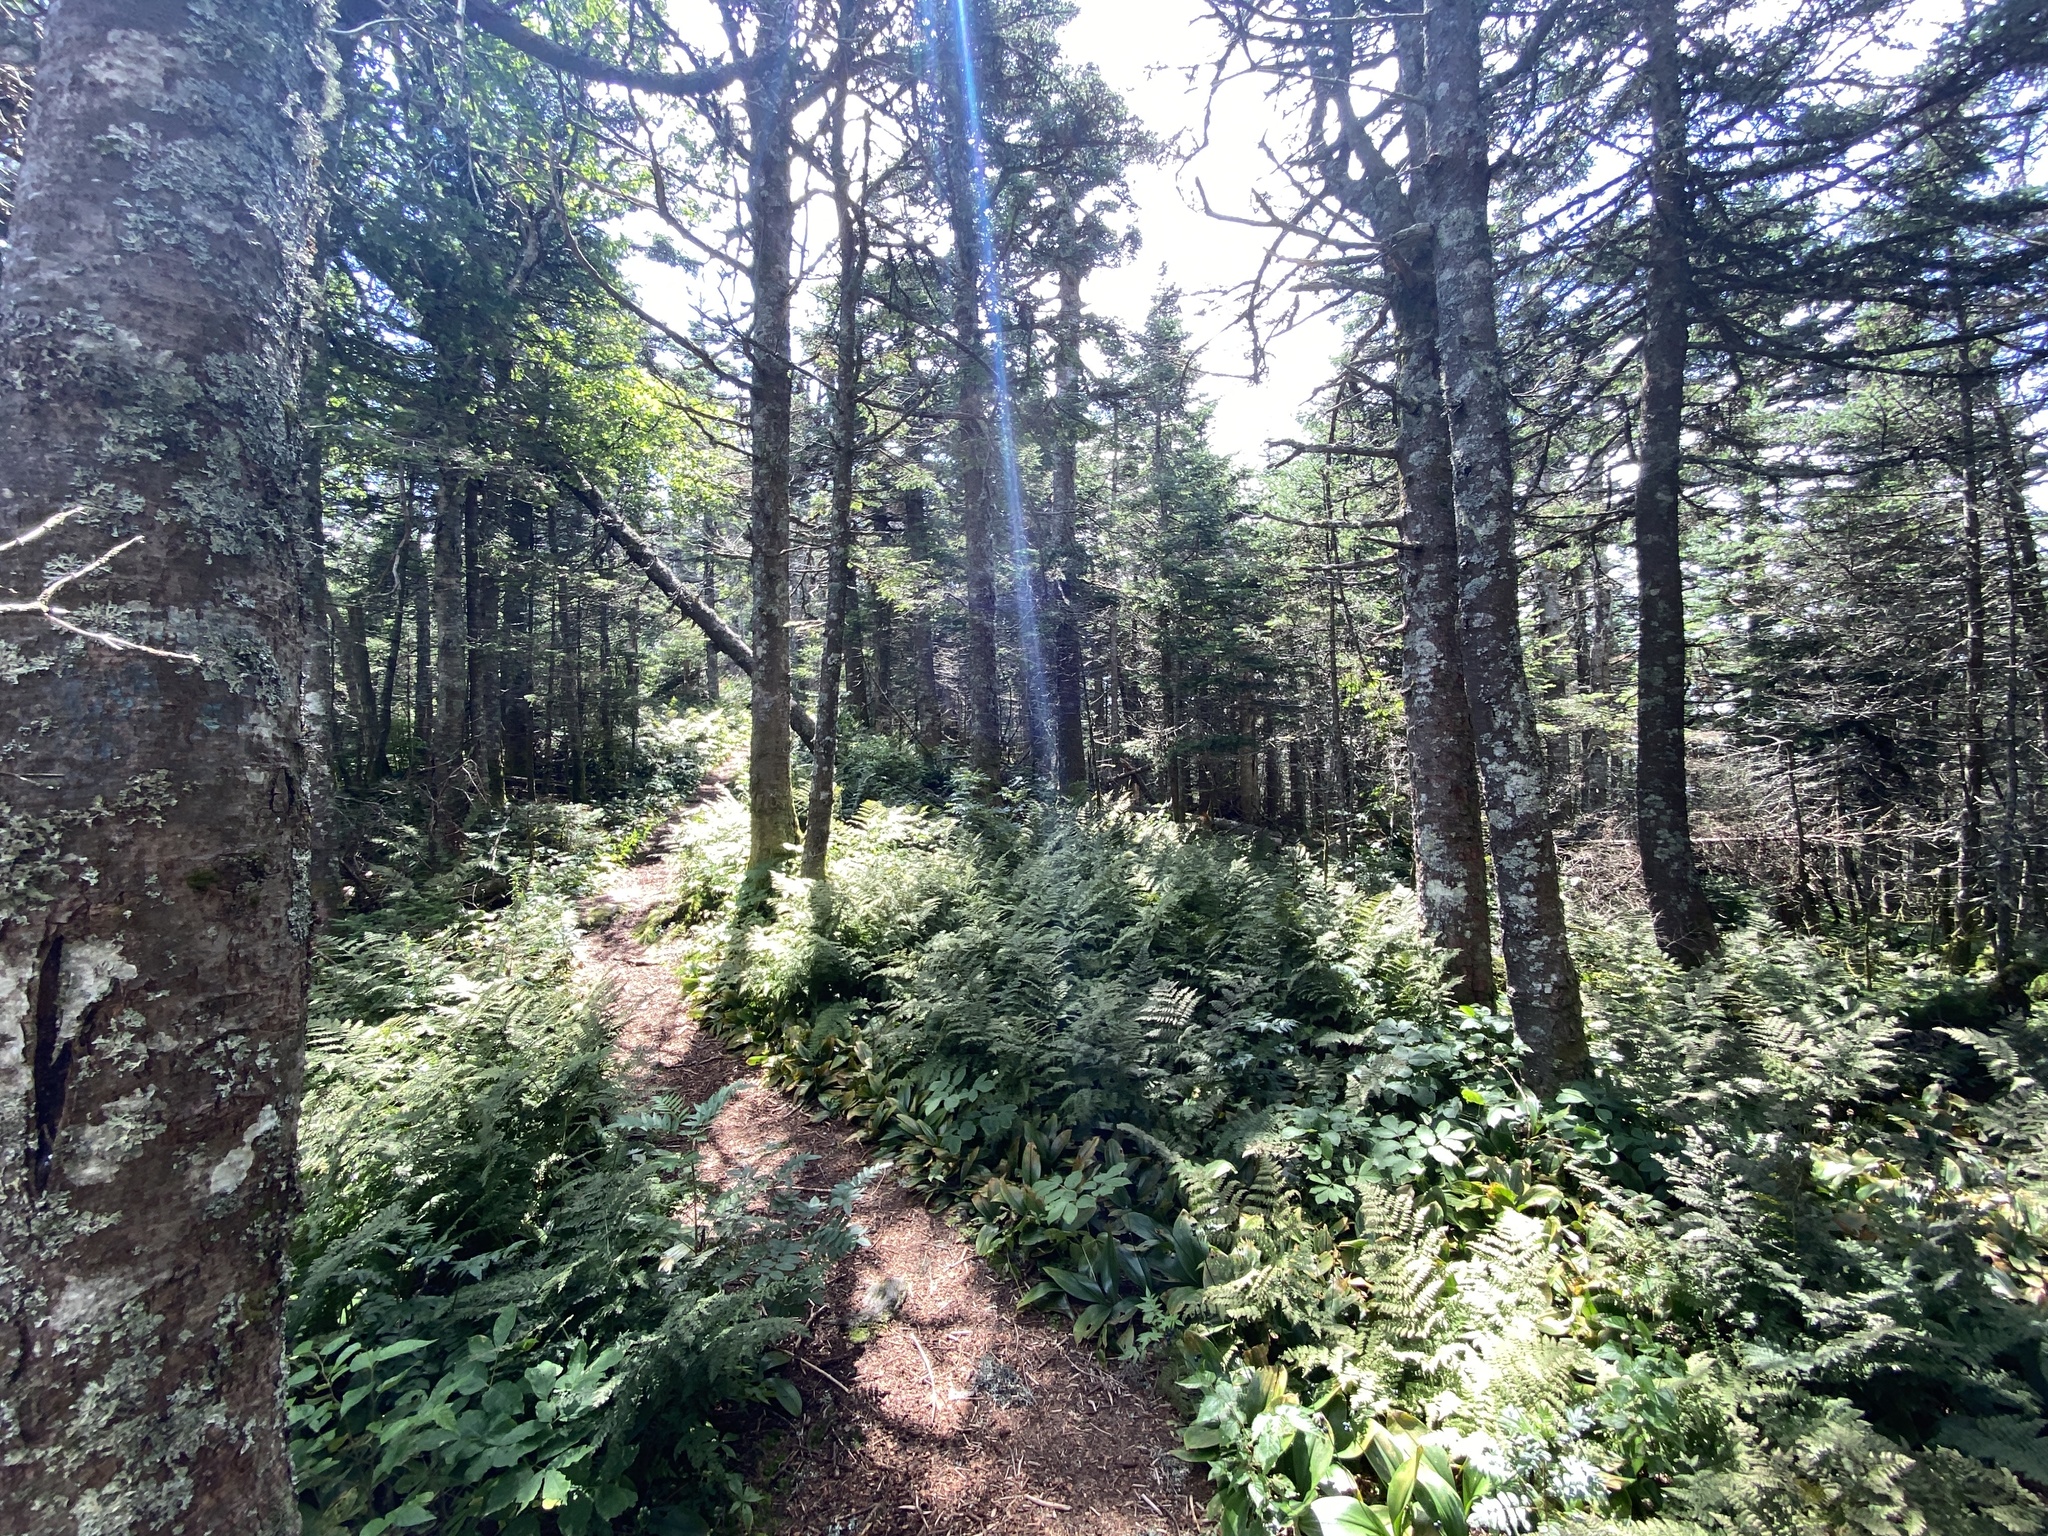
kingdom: Plantae
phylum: Tracheophyta
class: Pinopsida
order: Pinales
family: Pinaceae
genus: Abies
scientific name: Abies balsamea
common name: Balsam fir
